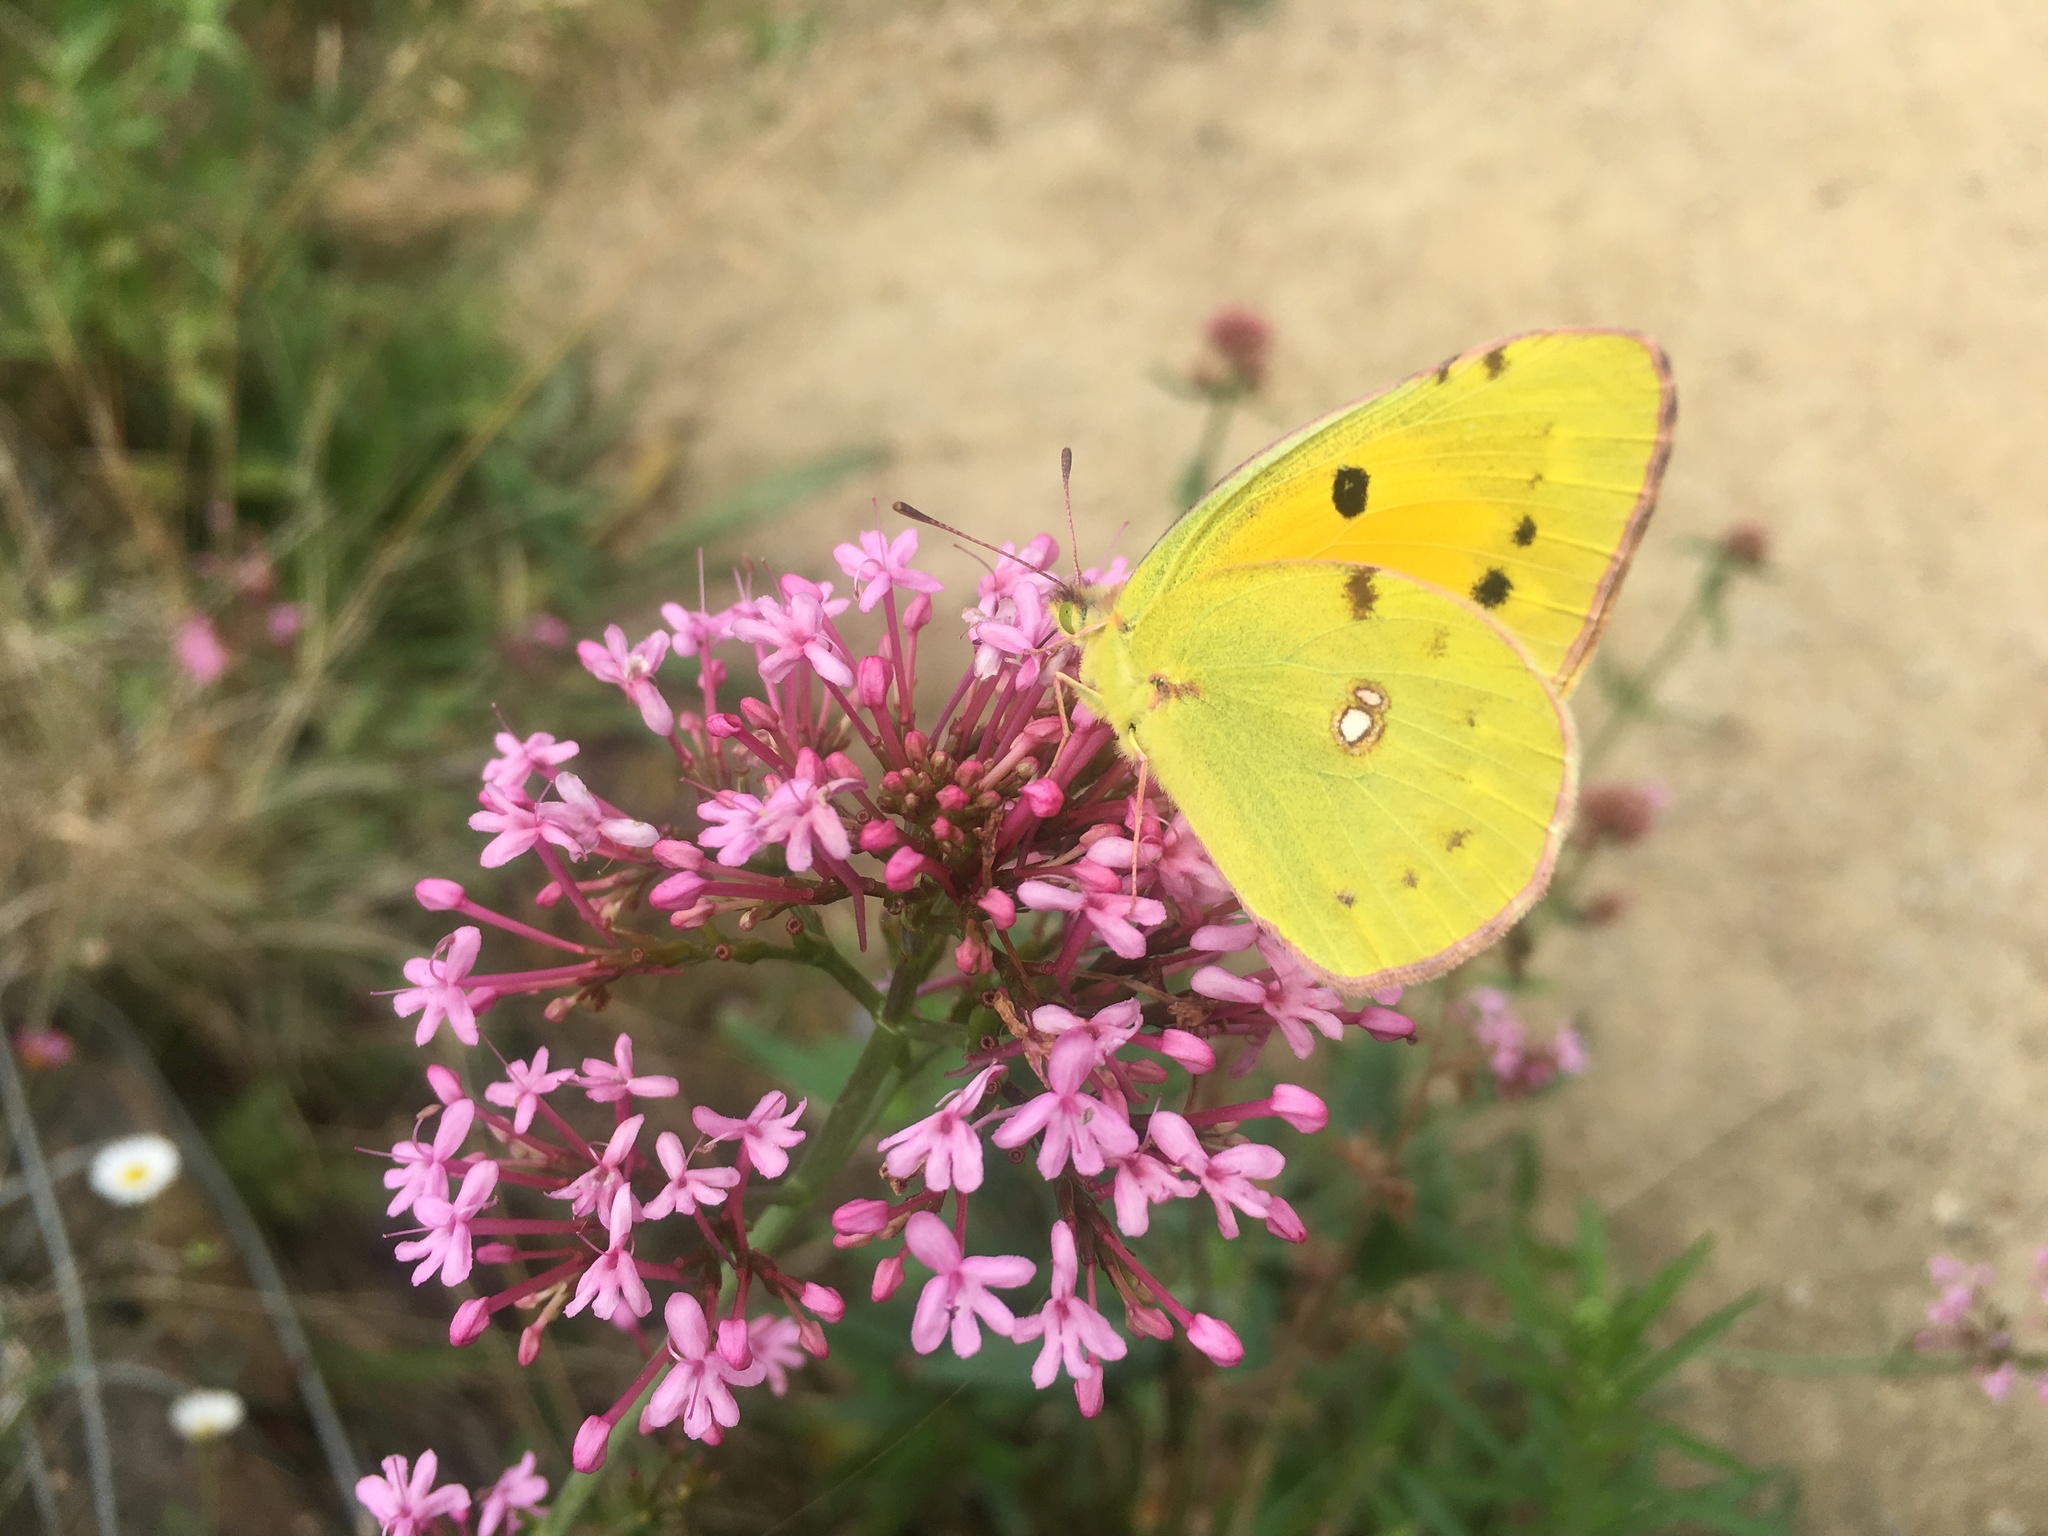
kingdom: Animalia
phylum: Arthropoda
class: Insecta
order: Lepidoptera
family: Pieridae
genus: Colias
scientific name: Colias croceus
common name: Clouded yellow
